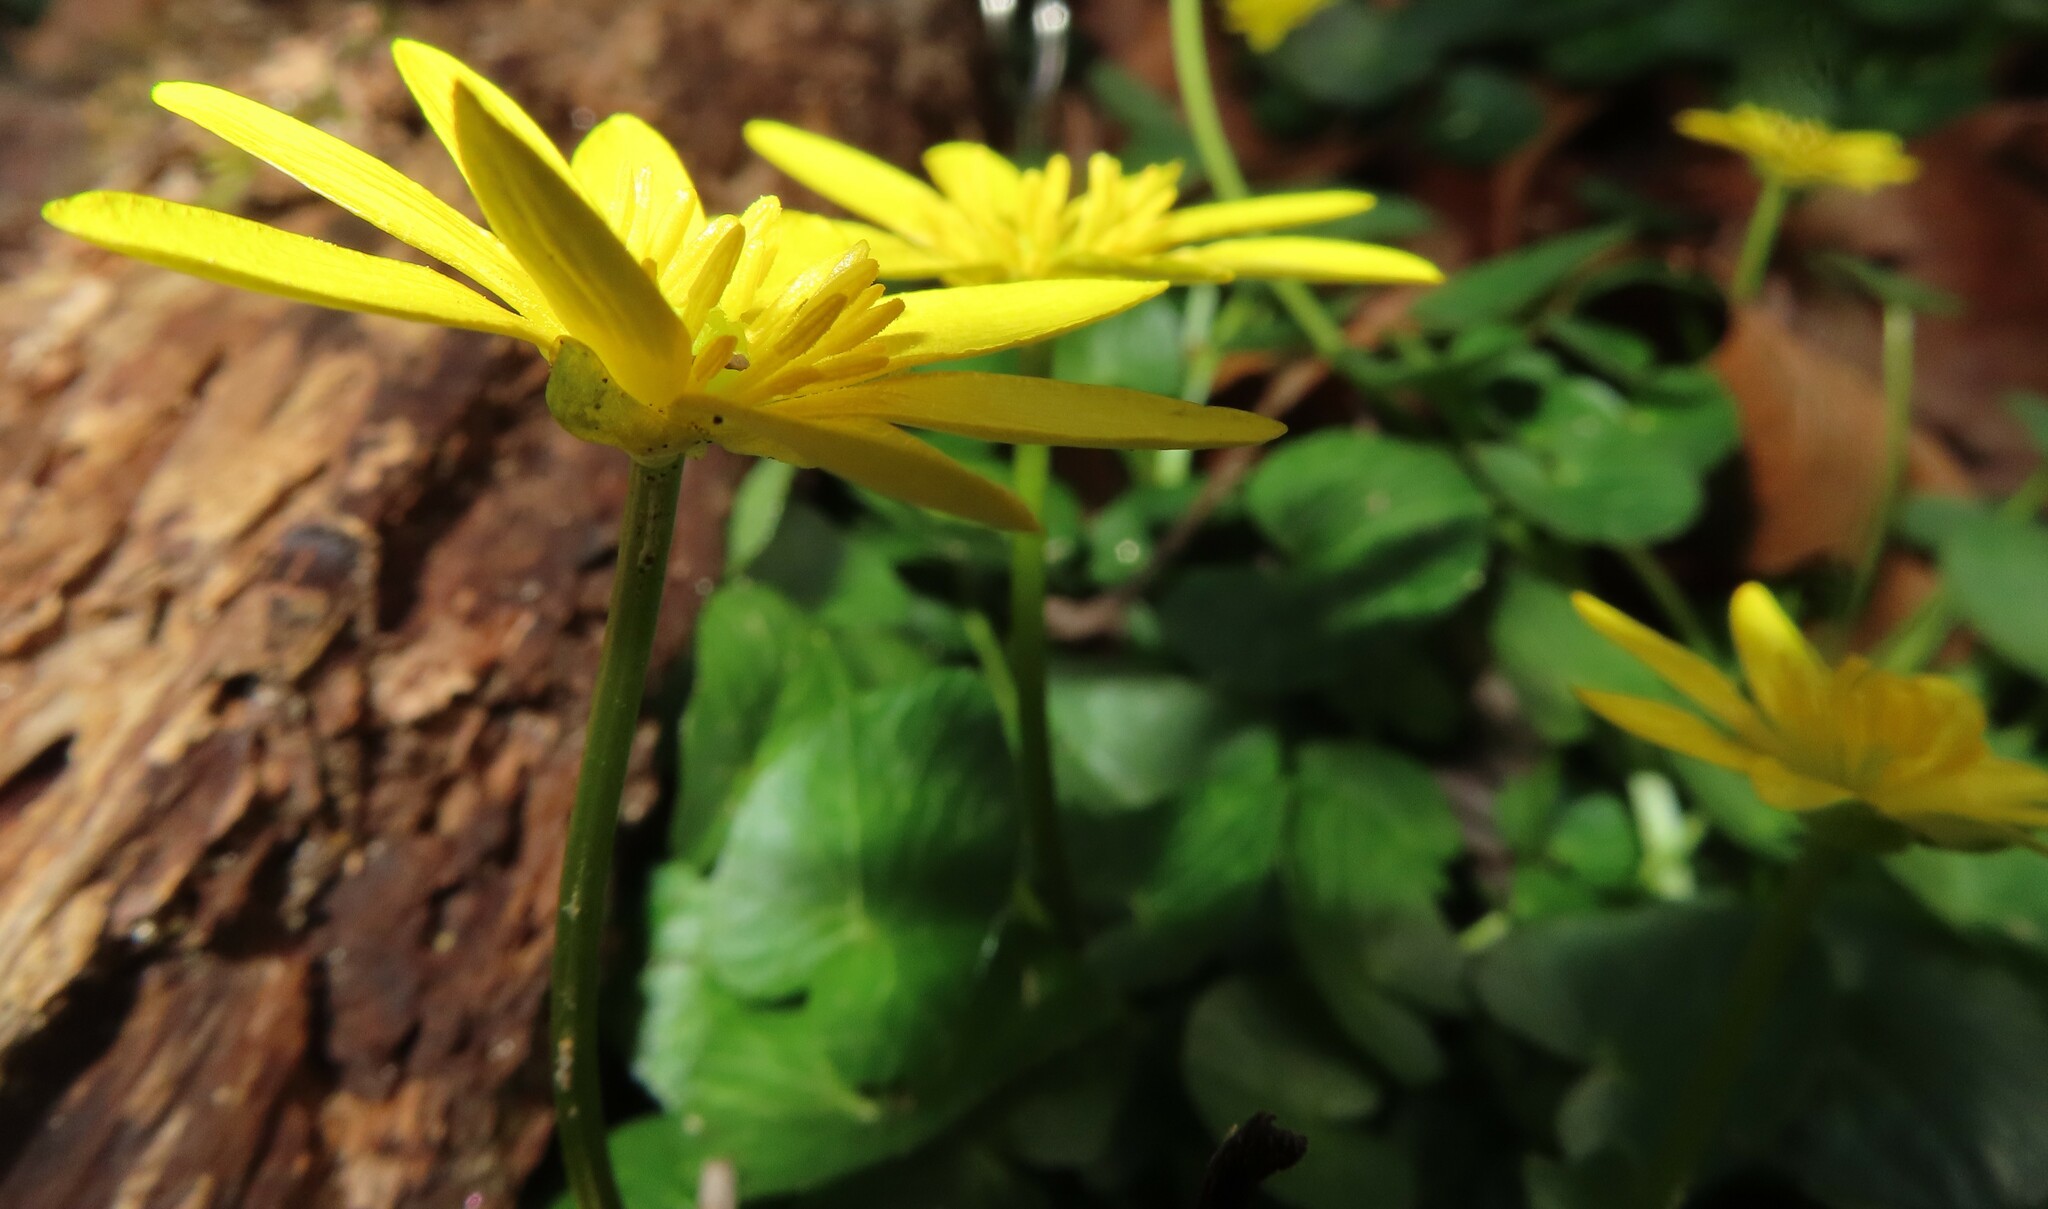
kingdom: Plantae
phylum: Tracheophyta
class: Magnoliopsida
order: Ranunculales
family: Ranunculaceae
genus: Ficaria
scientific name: Ficaria verna
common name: Lesser celandine
